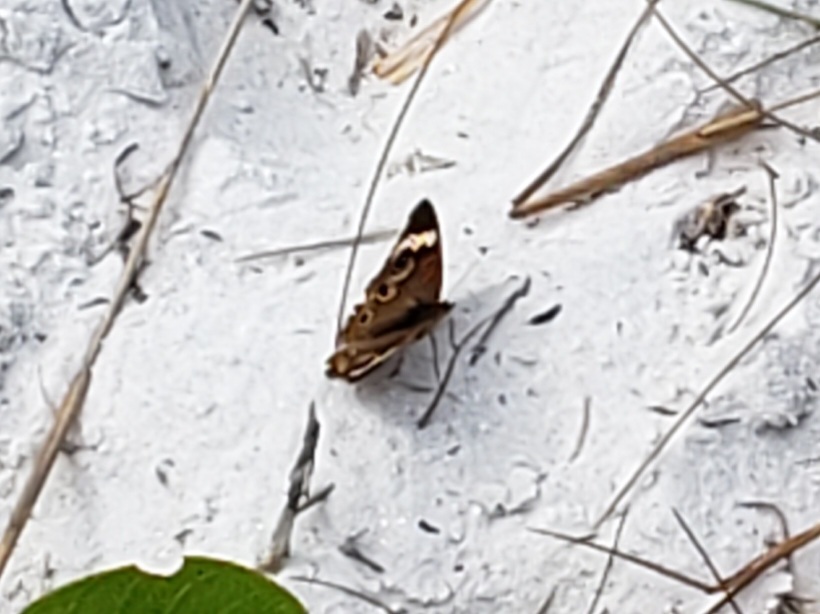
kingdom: Animalia
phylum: Arthropoda
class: Insecta
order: Lepidoptera
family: Nymphalidae
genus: Junonia
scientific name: Junonia coenia
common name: Common buckeye
